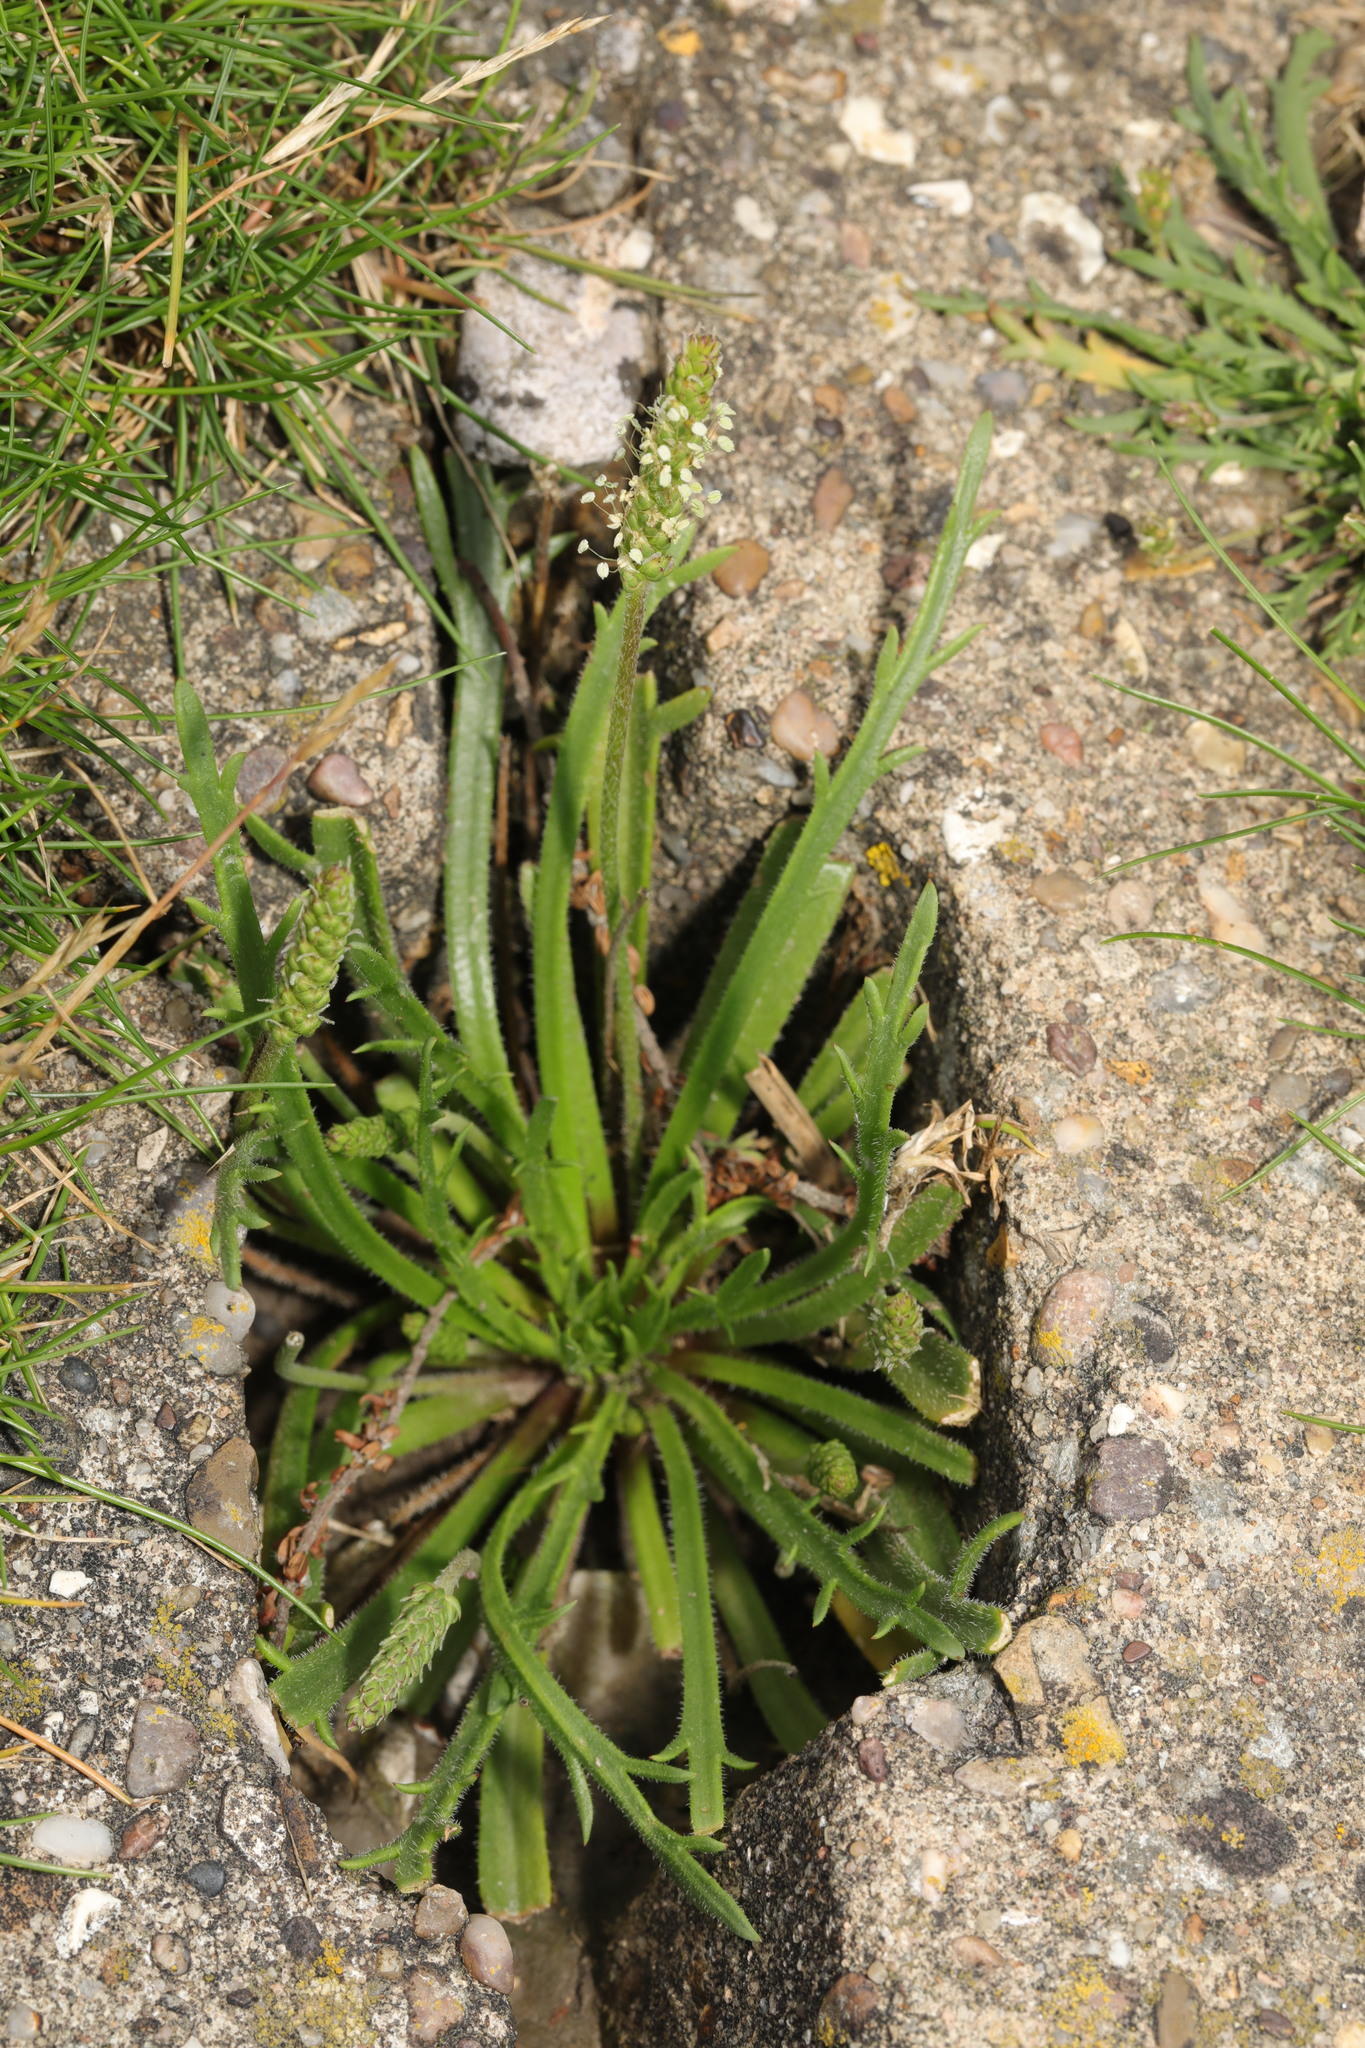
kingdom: Plantae
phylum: Tracheophyta
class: Magnoliopsida
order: Lamiales
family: Plantaginaceae
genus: Plantago
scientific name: Plantago coronopus
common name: Buck's-horn plantain
